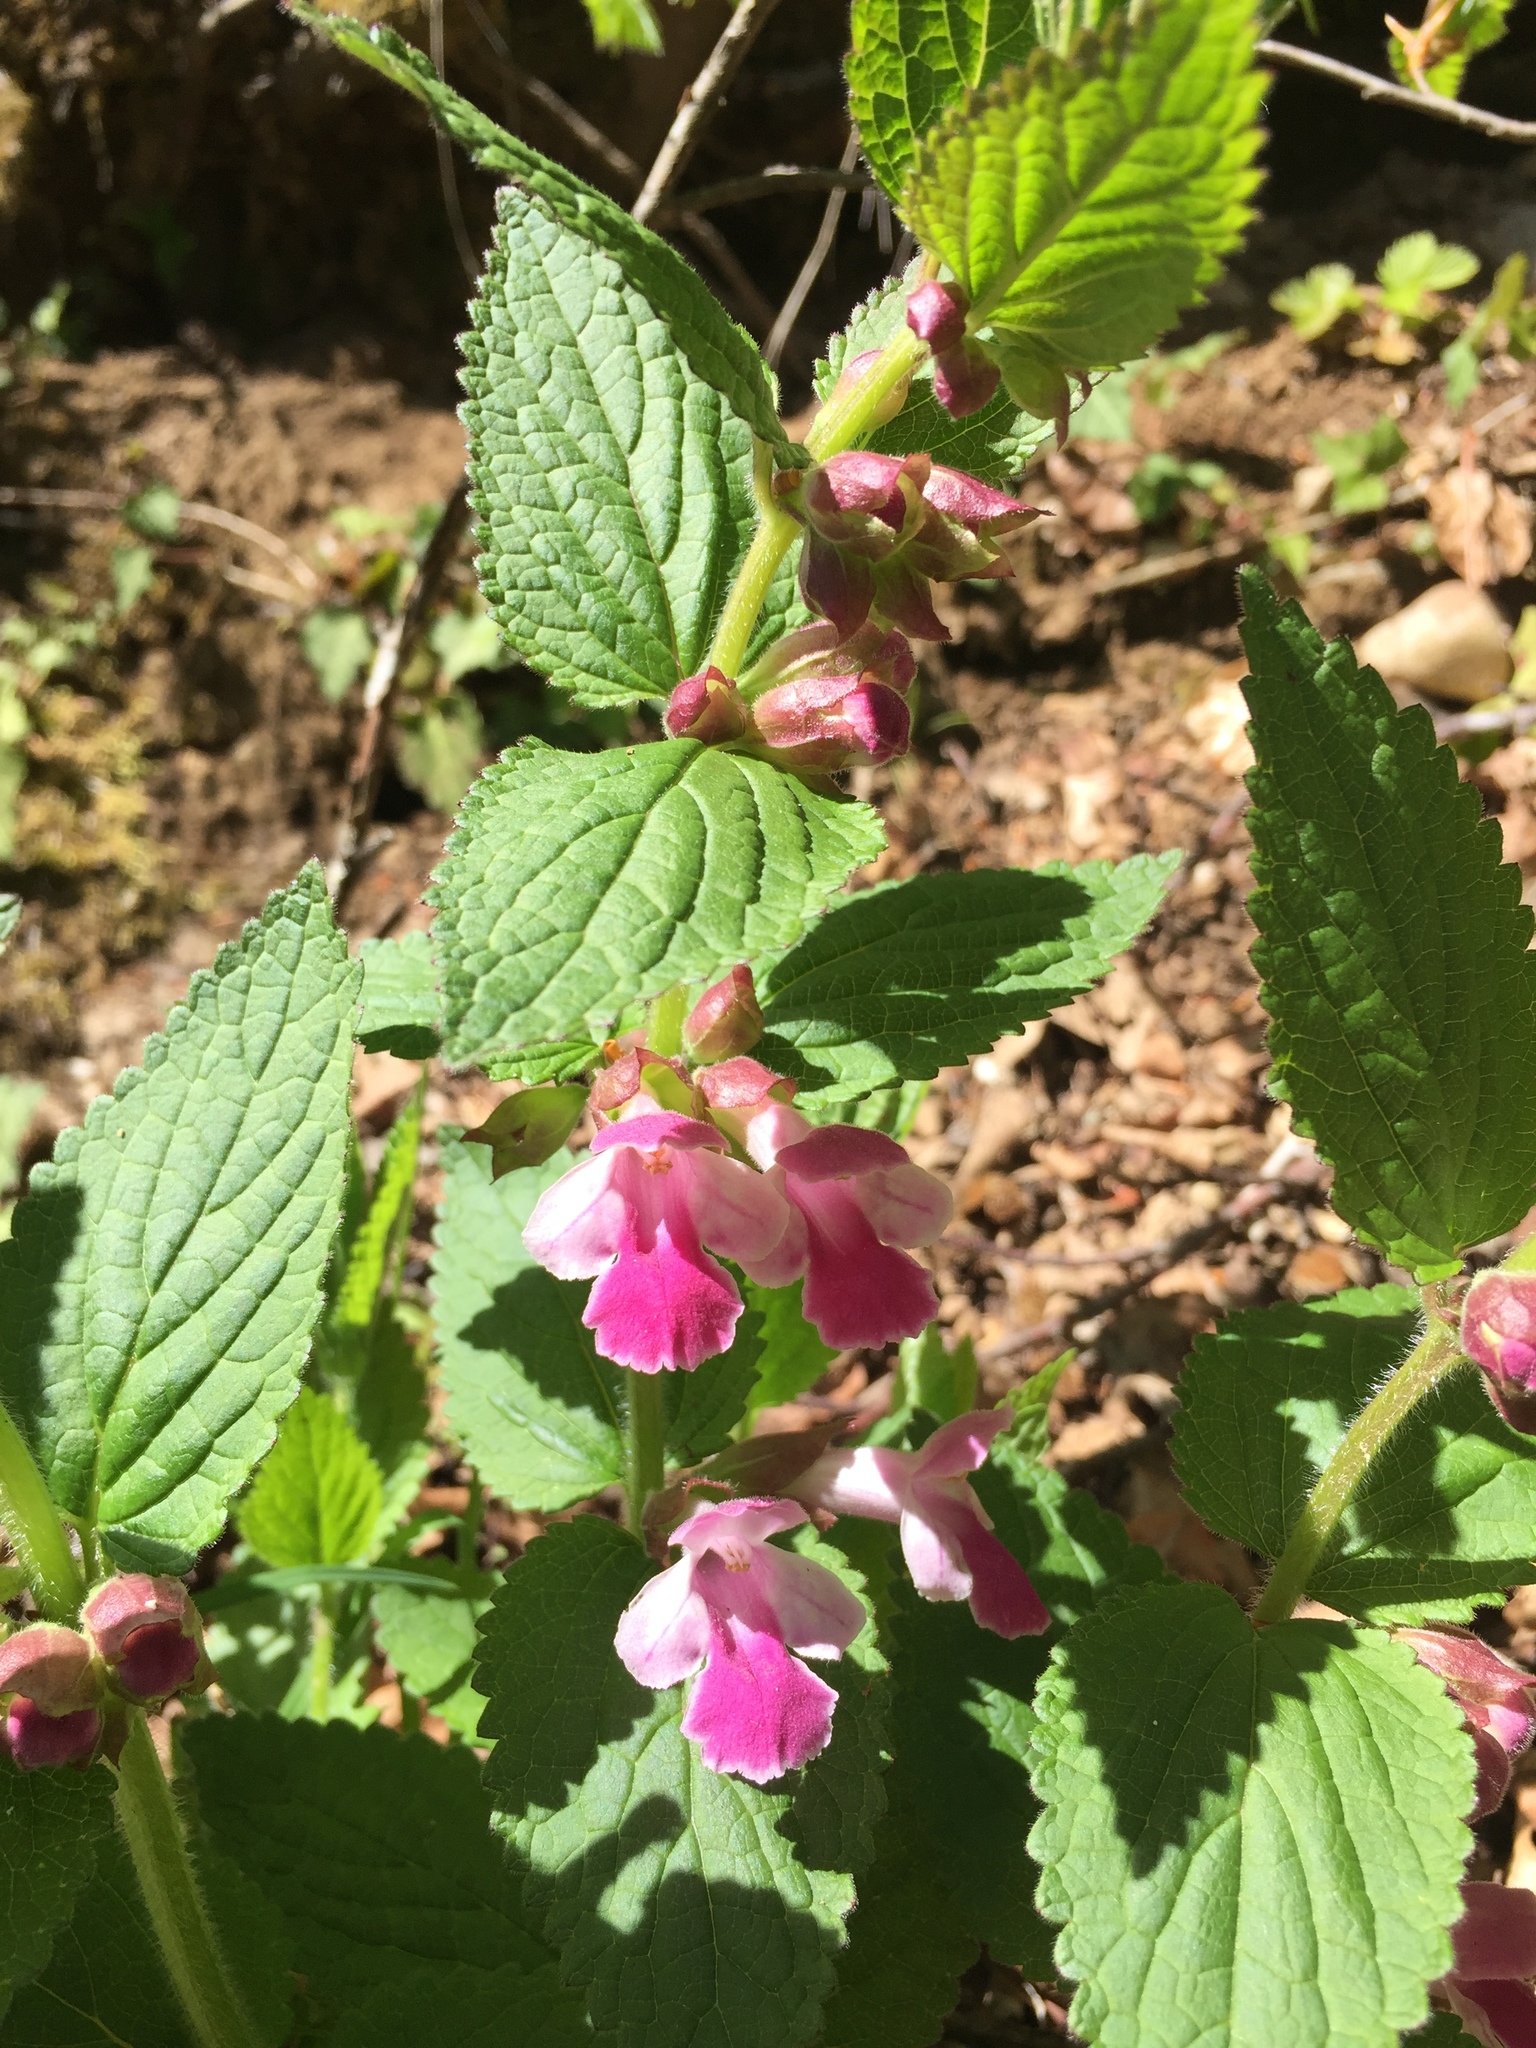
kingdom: Plantae
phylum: Tracheophyta
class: Magnoliopsida
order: Lamiales
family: Lamiaceae
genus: Melittis
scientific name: Melittis melissophyllum
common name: Bastard balm
